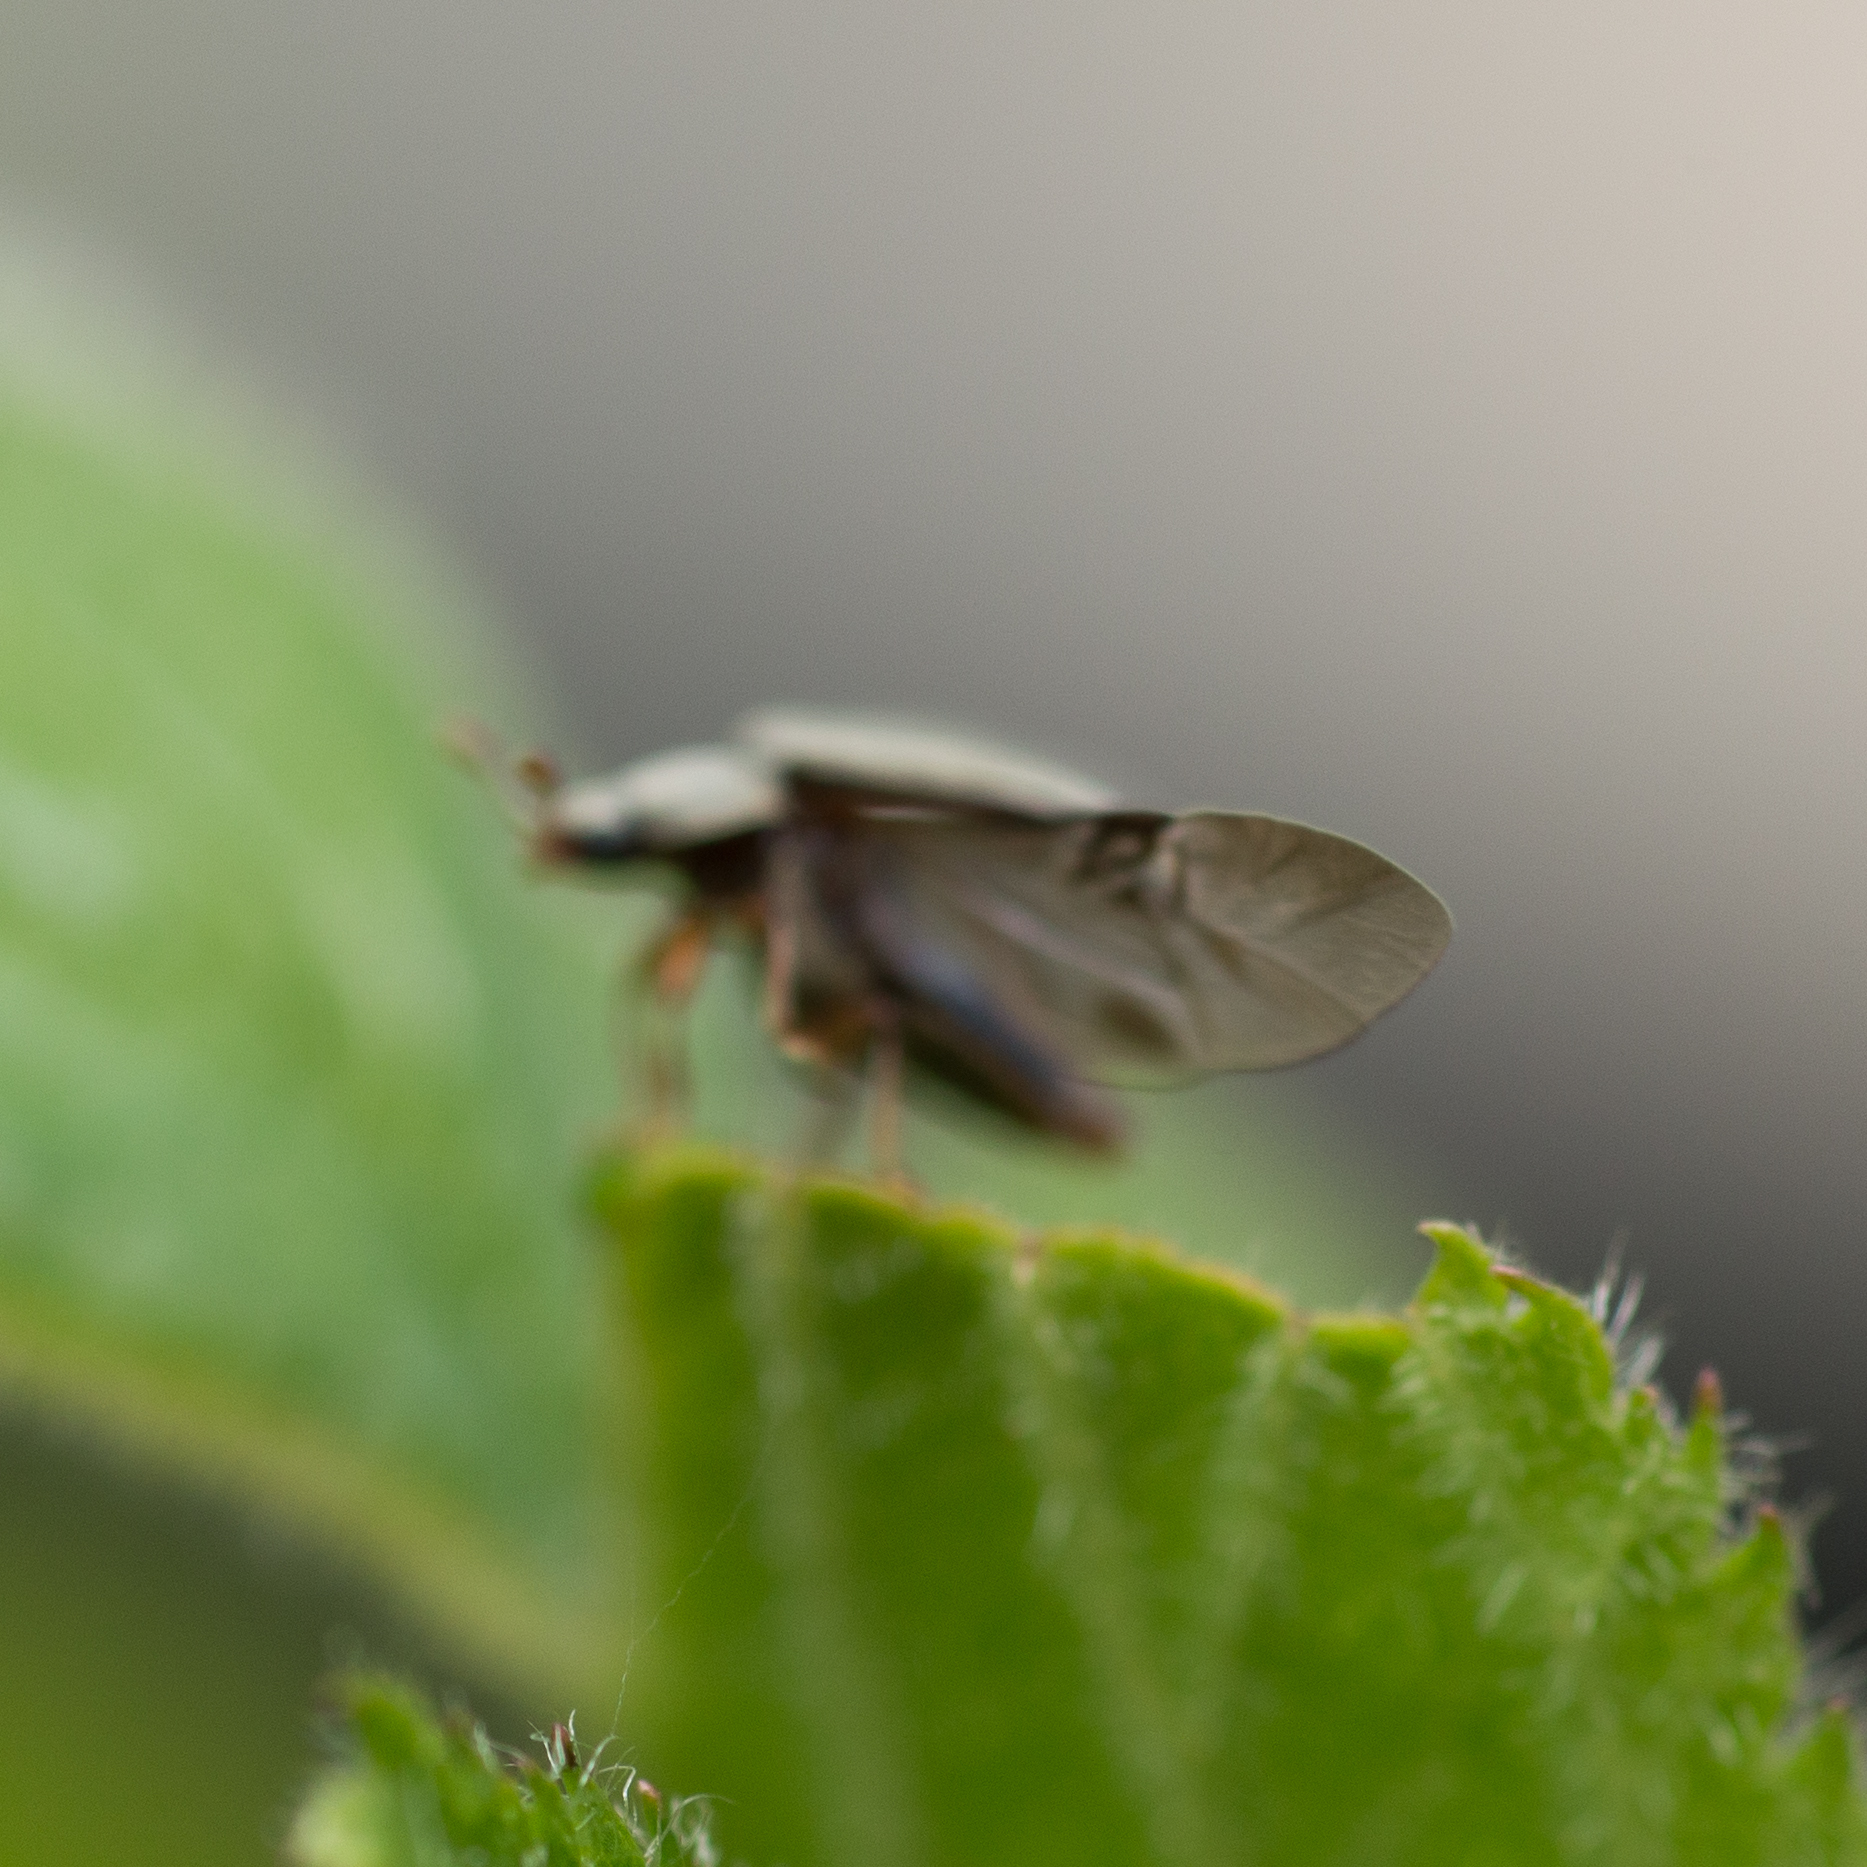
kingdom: Animalia
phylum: Arthropoda
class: Insecta
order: Coleoptera
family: Byturidae
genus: Byturus
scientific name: Byturus tomentosus
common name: Beetle
